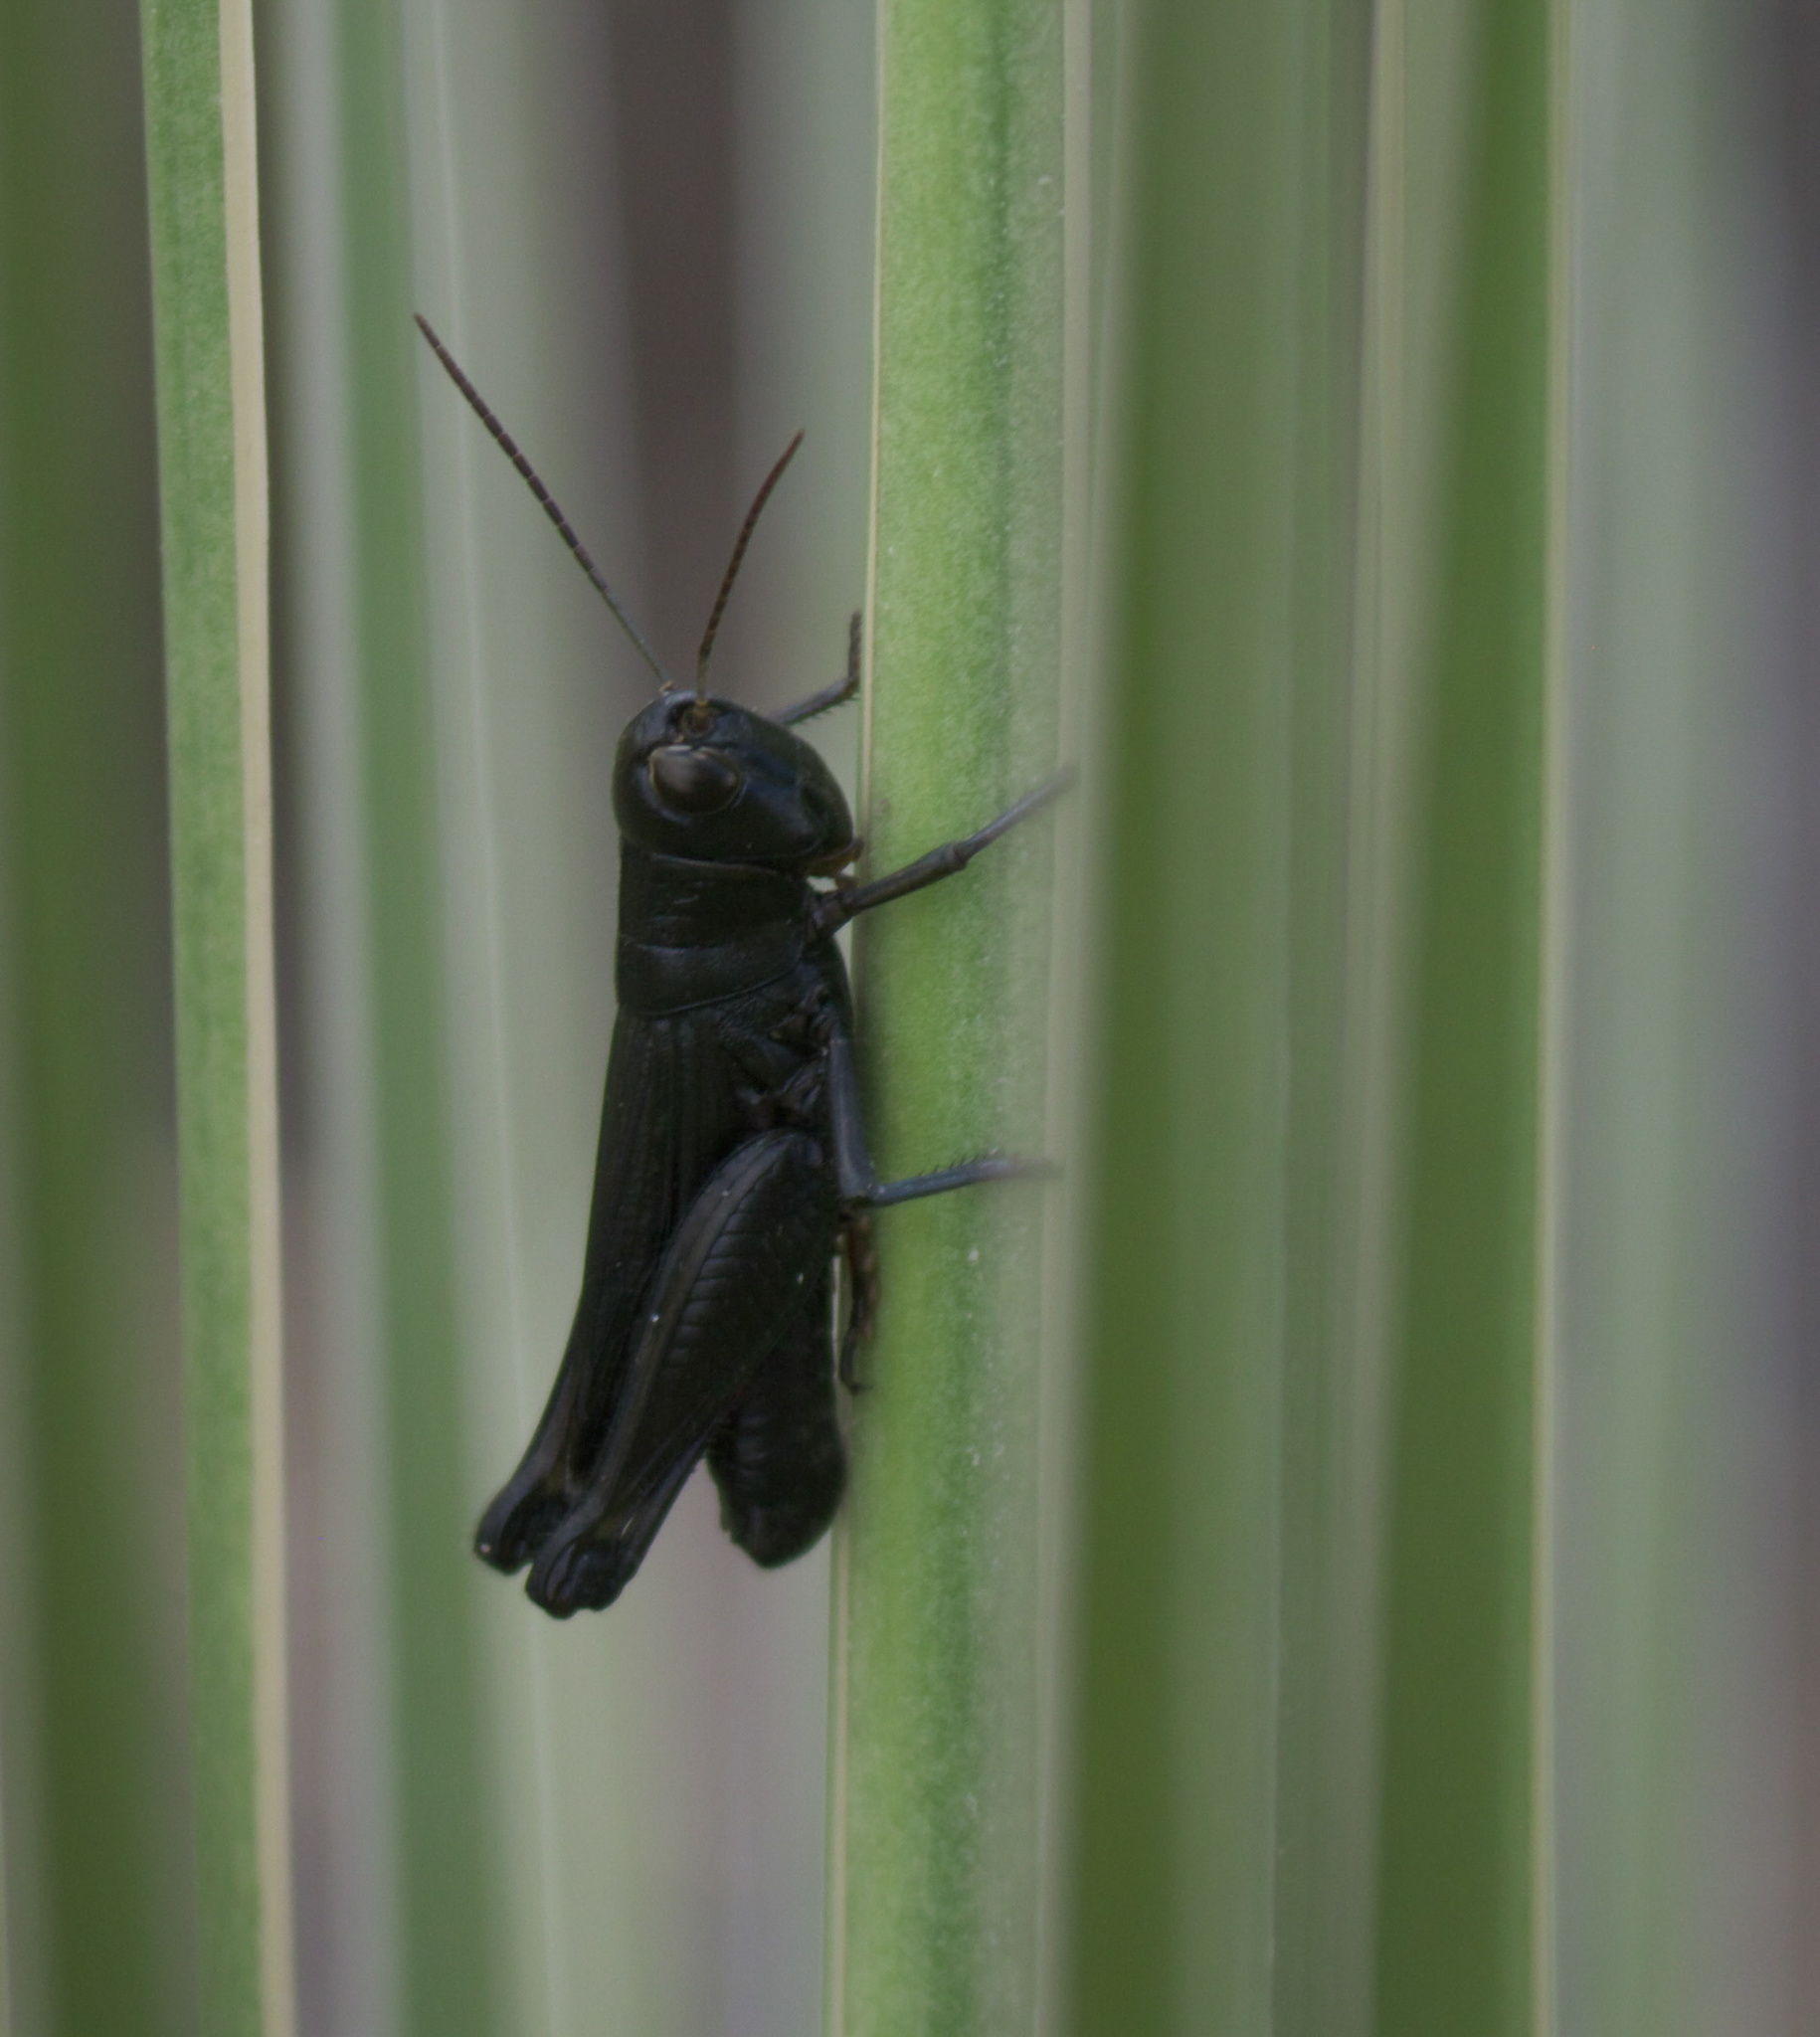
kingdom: Animalia
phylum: Arthropoda
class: Insecta
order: Orthoptera
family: Acrididae
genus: Boopedon
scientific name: Boopedon nubilum
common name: Ebony grasshopper
